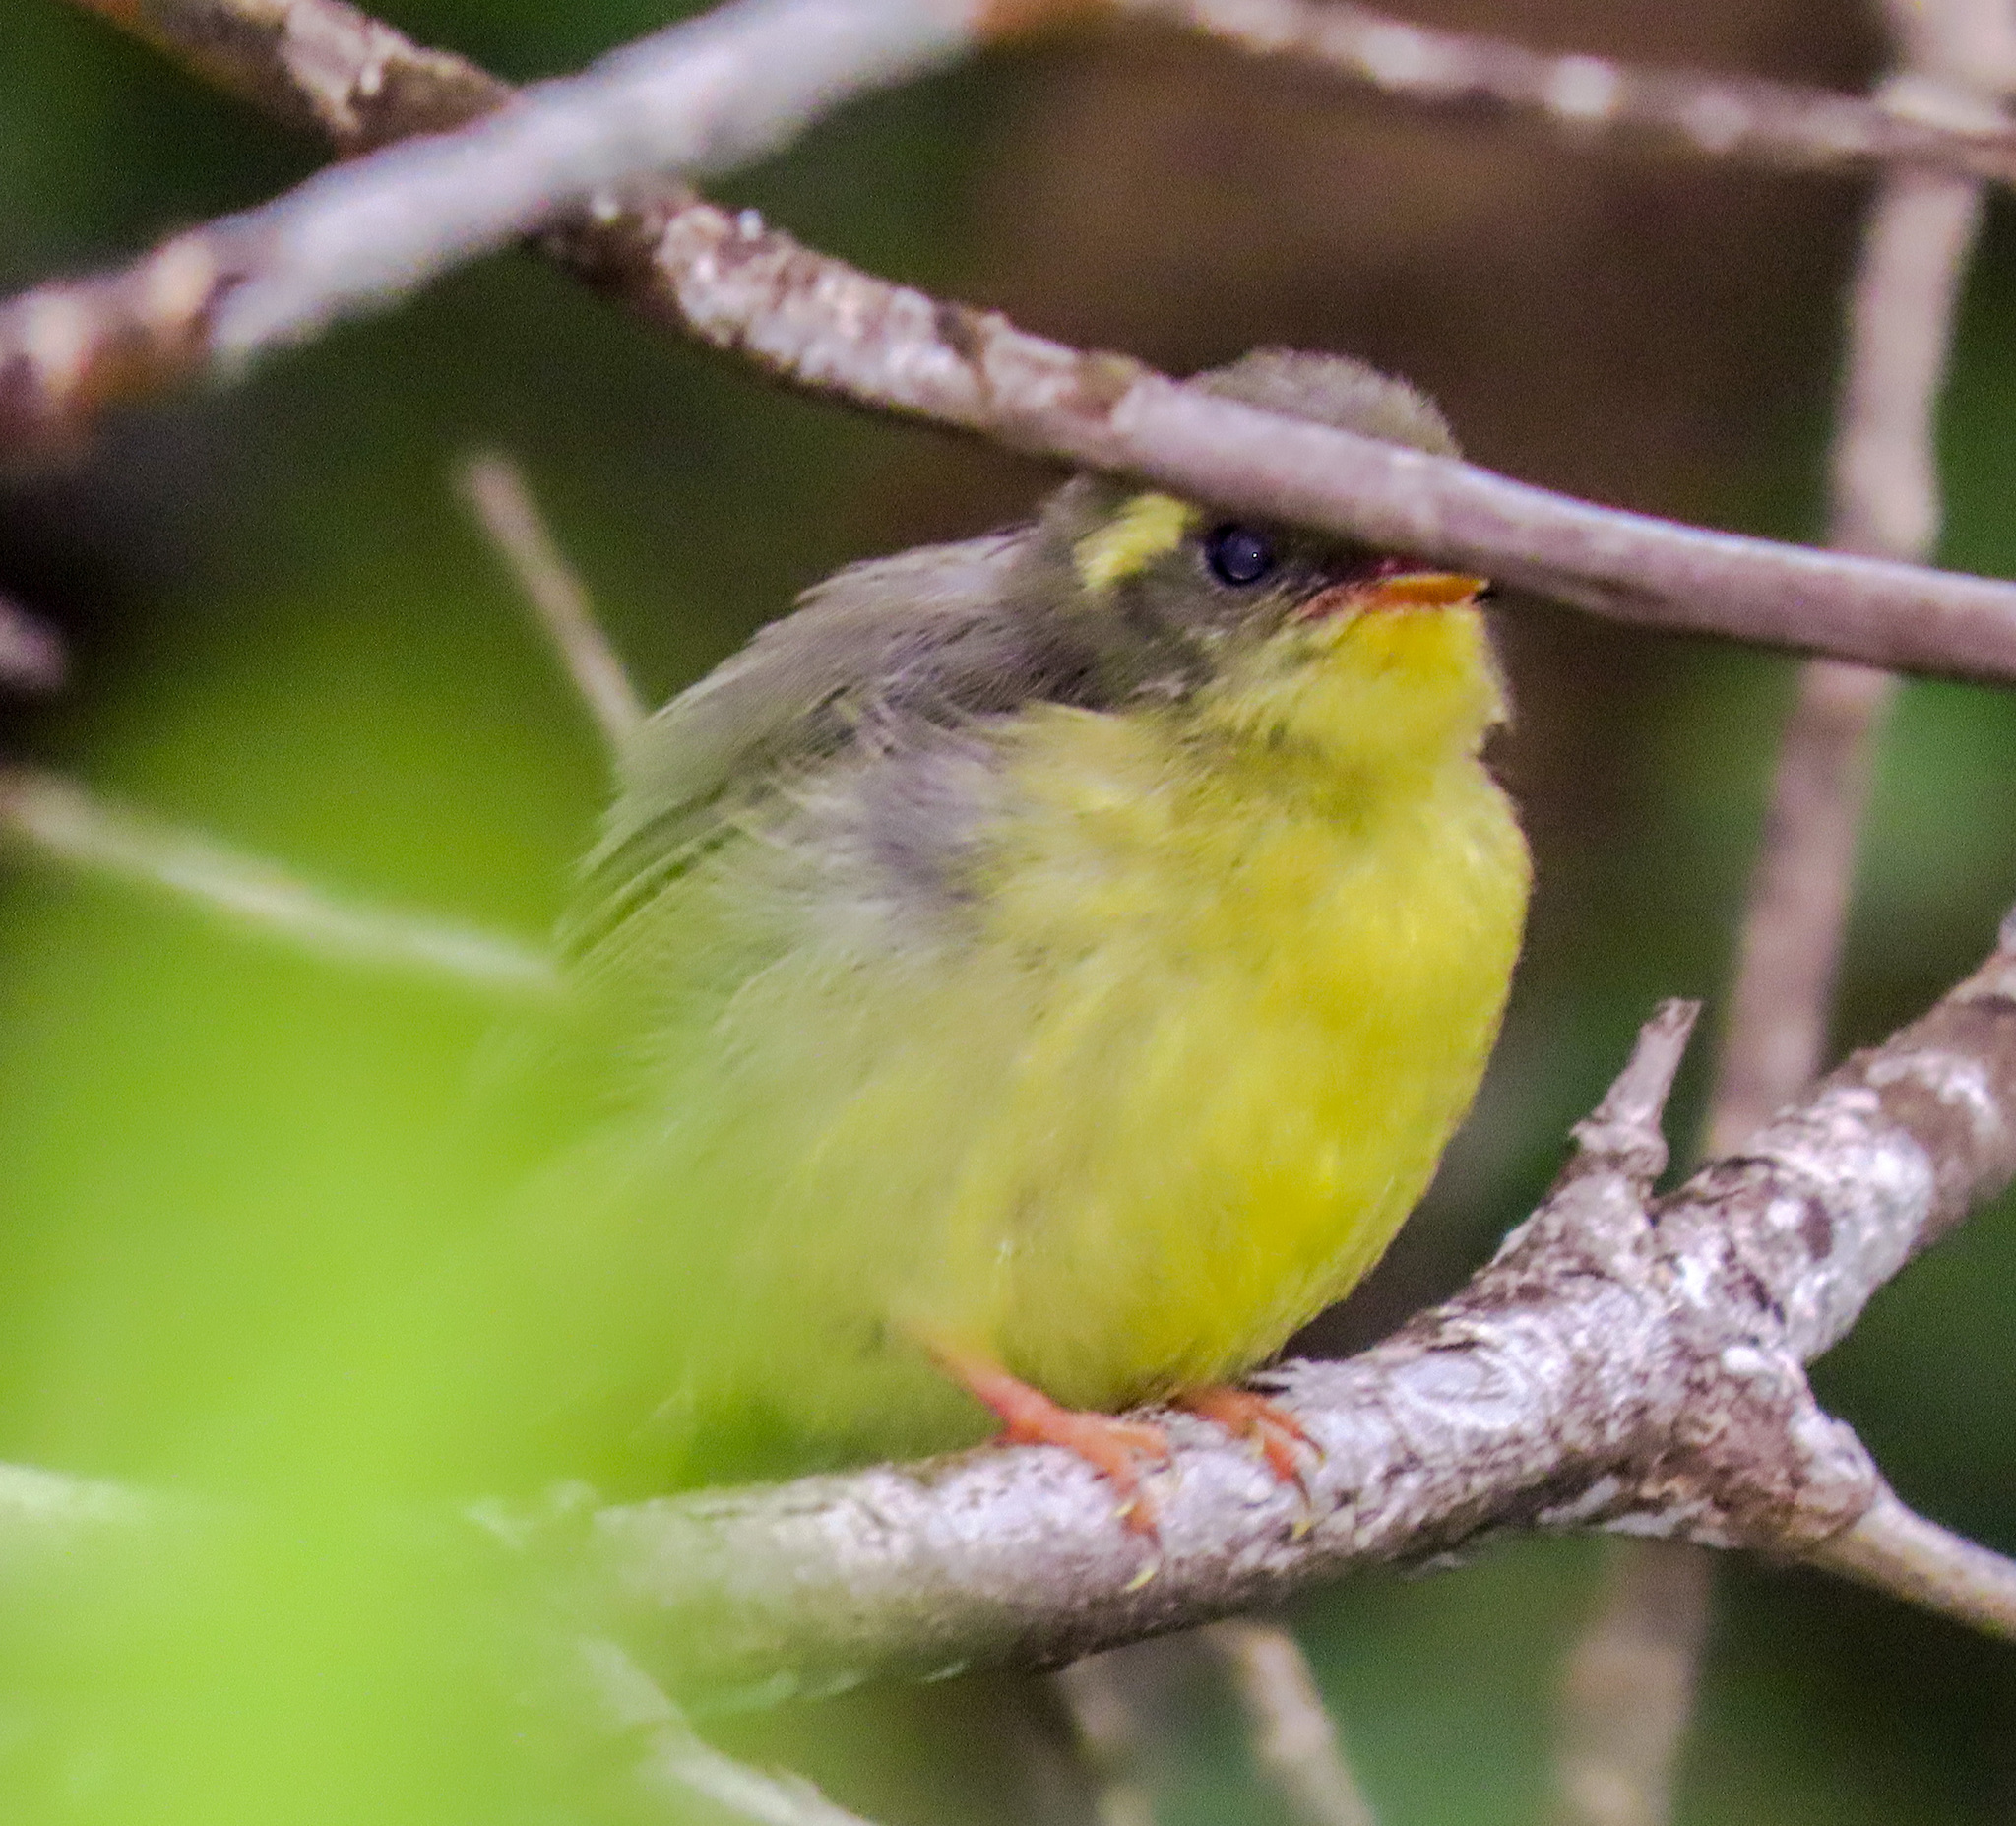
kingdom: Animalia
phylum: Chordata
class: Aves
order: Passeriformes
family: Stenostiridae
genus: Chelidorhynx
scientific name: Chelidorhynx hypoxantha
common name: Yellow-bellied fantail
